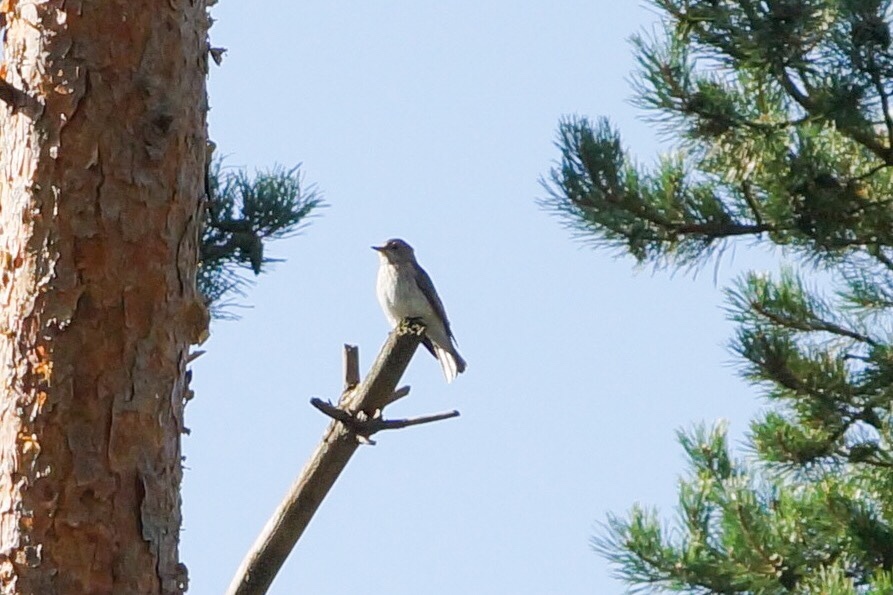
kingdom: Animalia
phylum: Chordata
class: Aves
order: Passeriformes
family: Muscicapidae
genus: Muscicapa
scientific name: Muscicapa striata
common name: Spotted flycatcher
